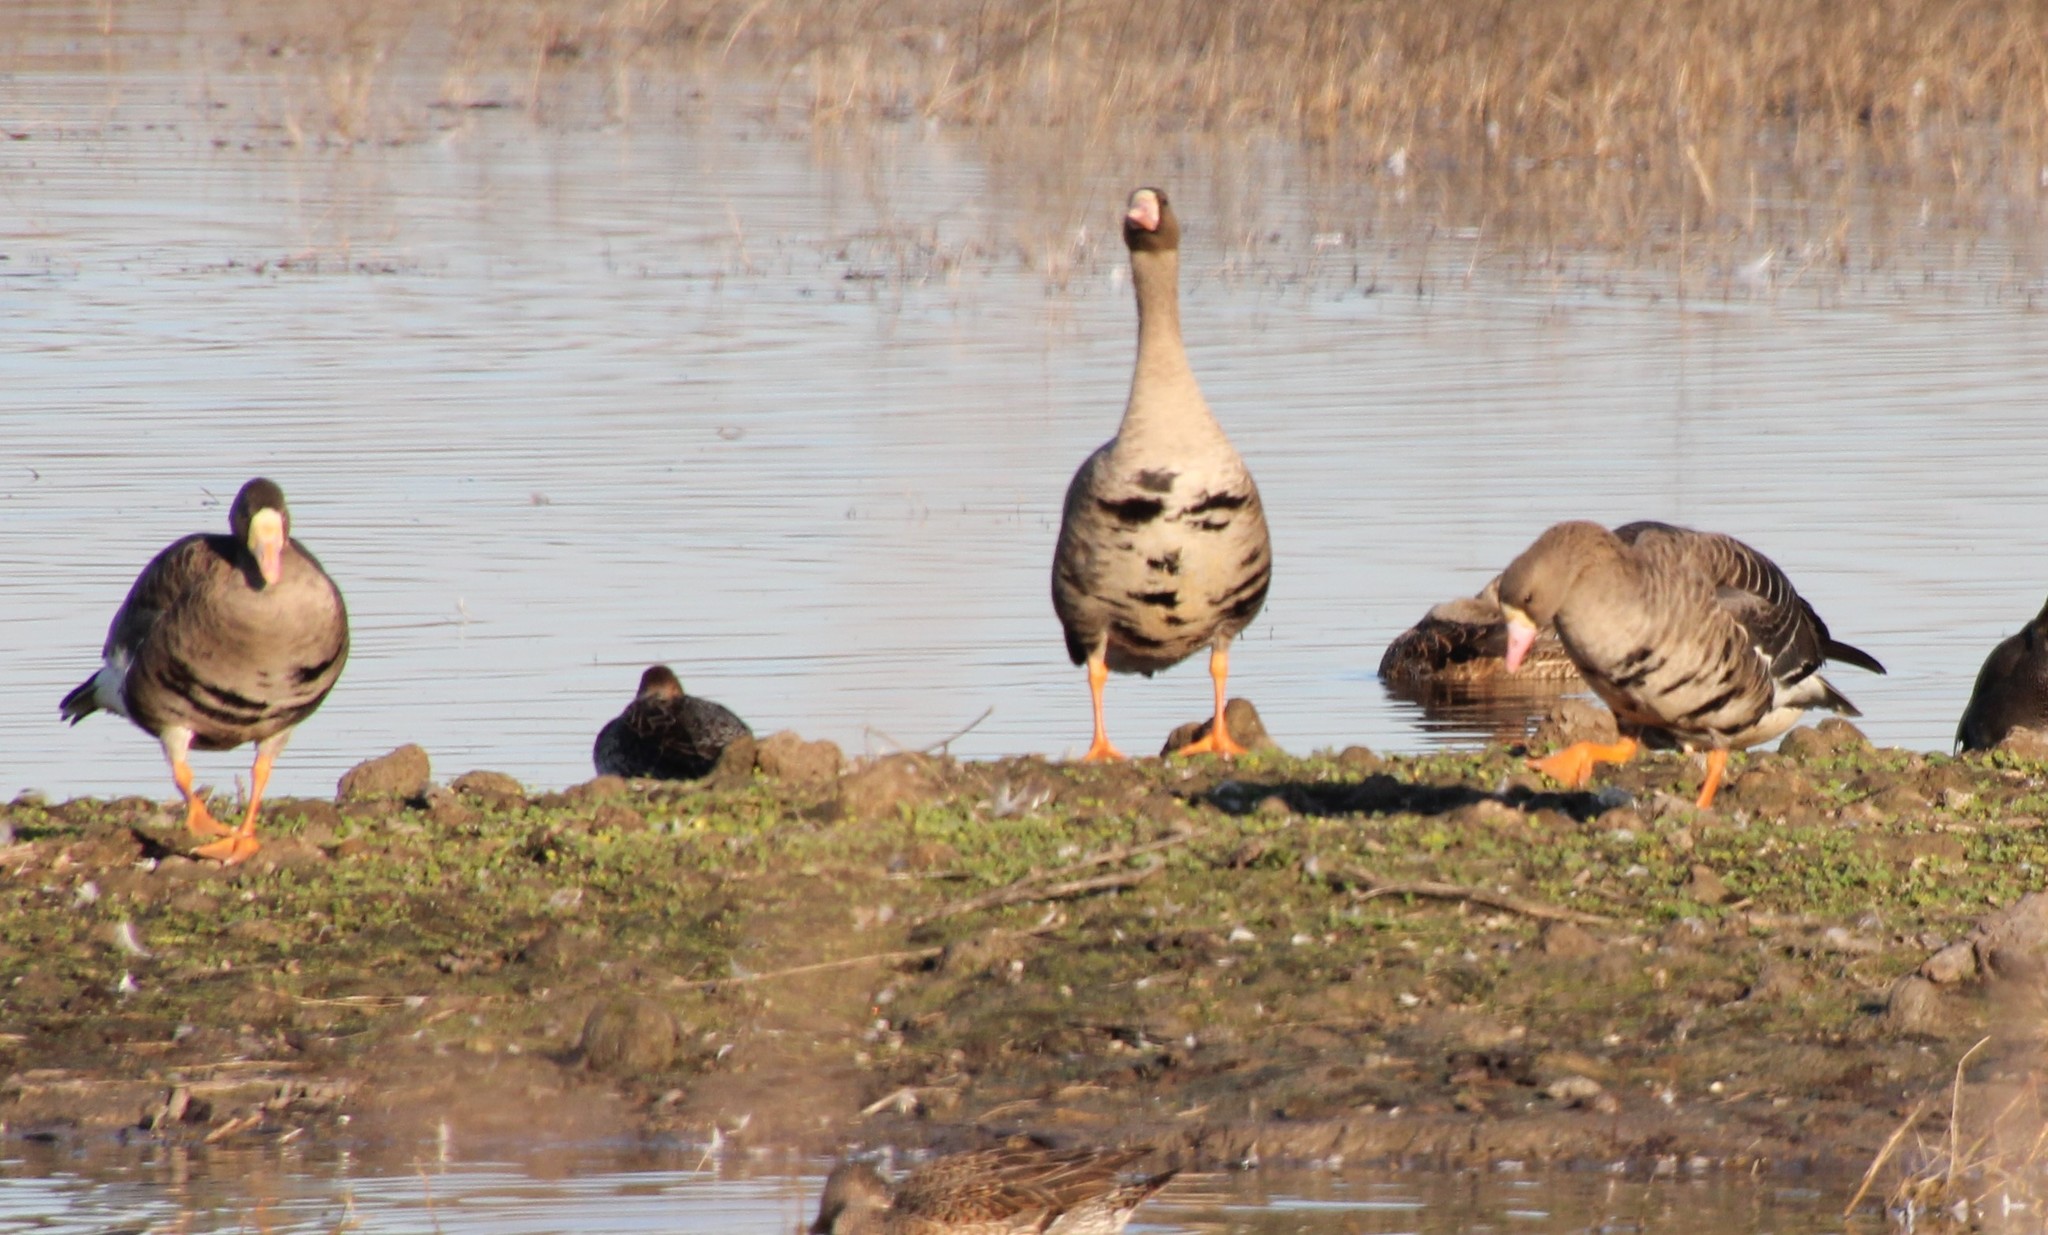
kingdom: Animalia
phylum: Chordata
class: Aves
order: Anseriformes
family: Anatidae
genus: Anser
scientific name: Anser albifrons
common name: Greater white-fronted goose
